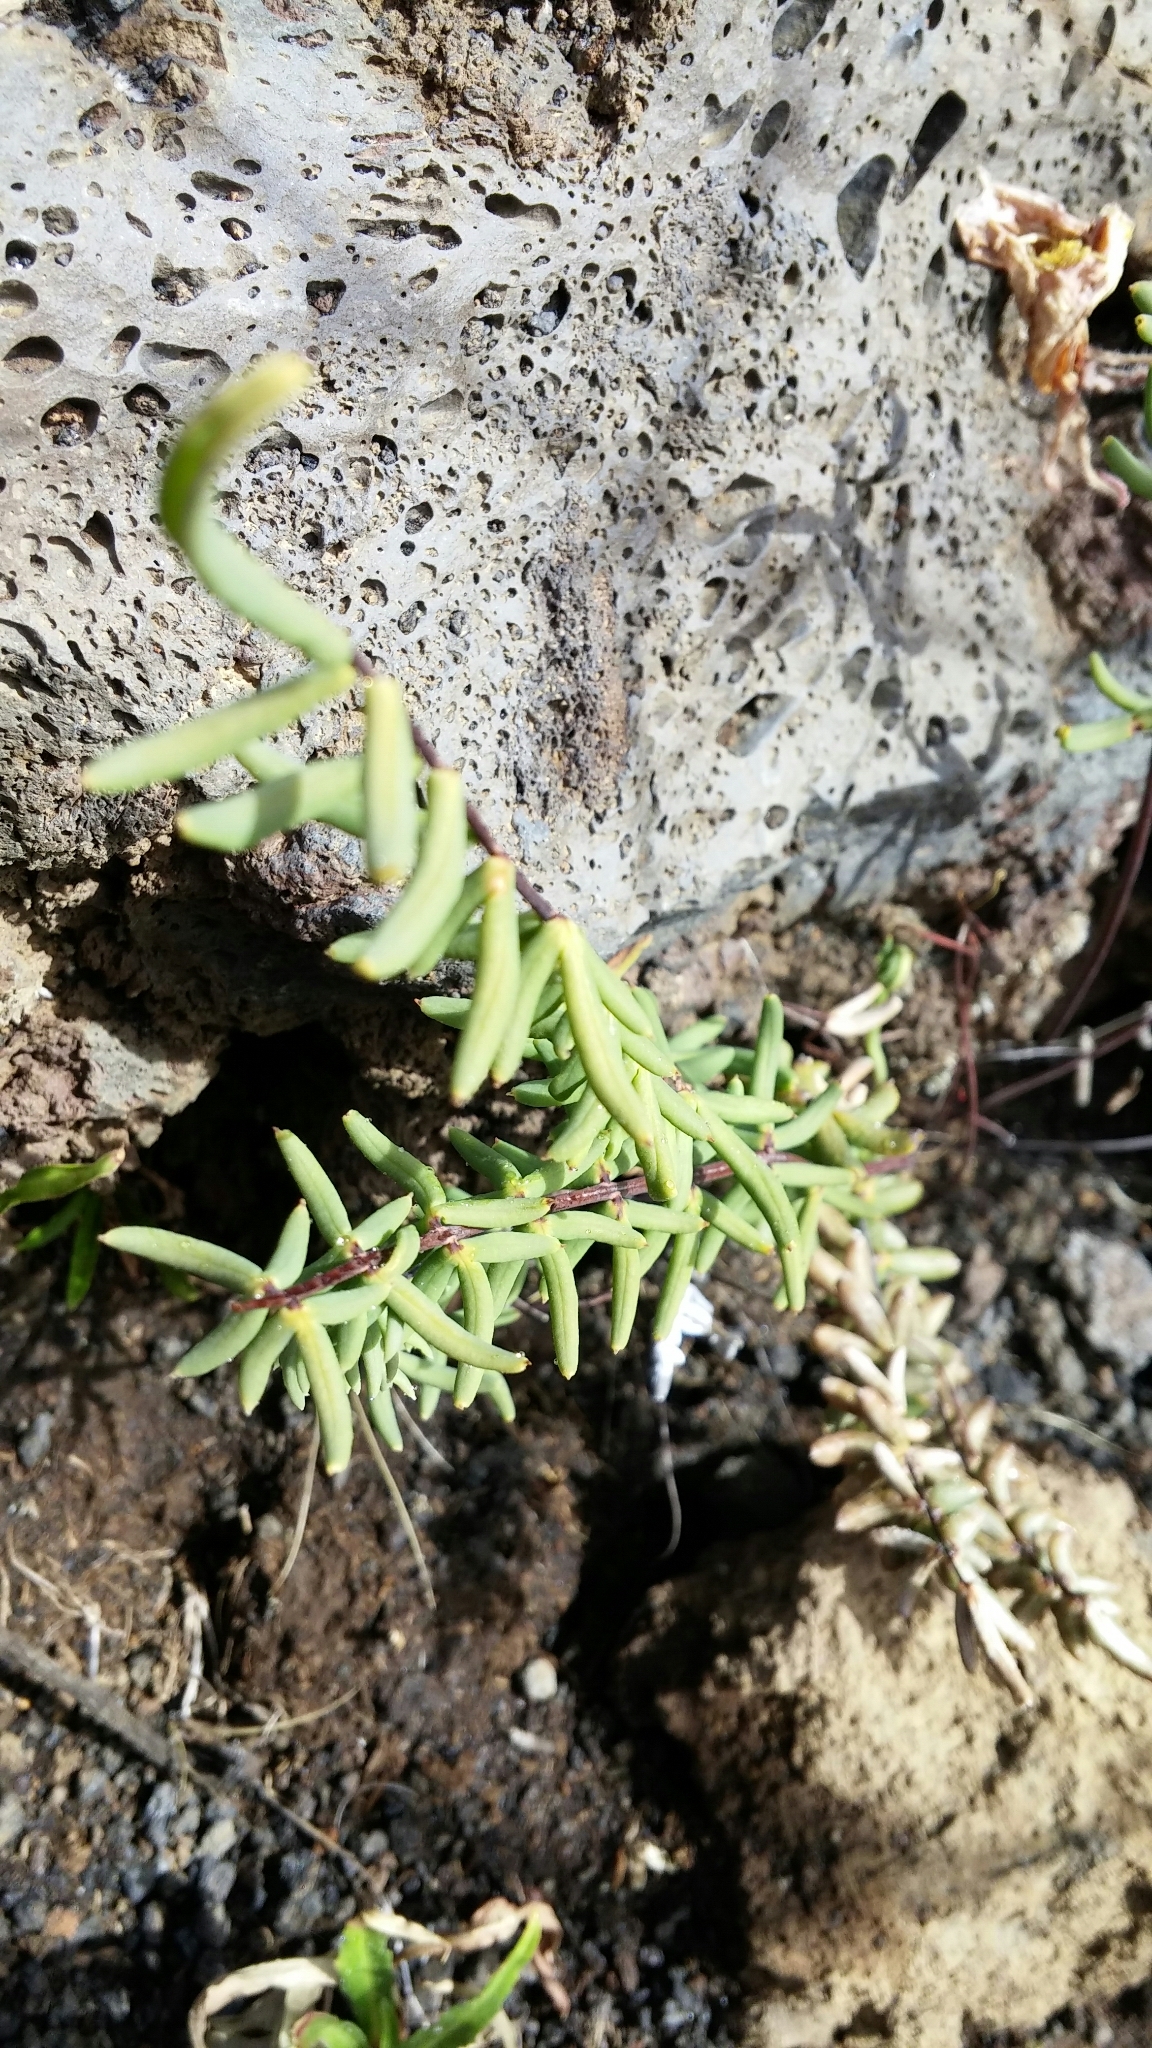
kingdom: Plantae
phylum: Tracheophyta
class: Polypodiopsida
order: Polypodiales
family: Pteridaceae
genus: Pellaea
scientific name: Pellaea ternifolia
